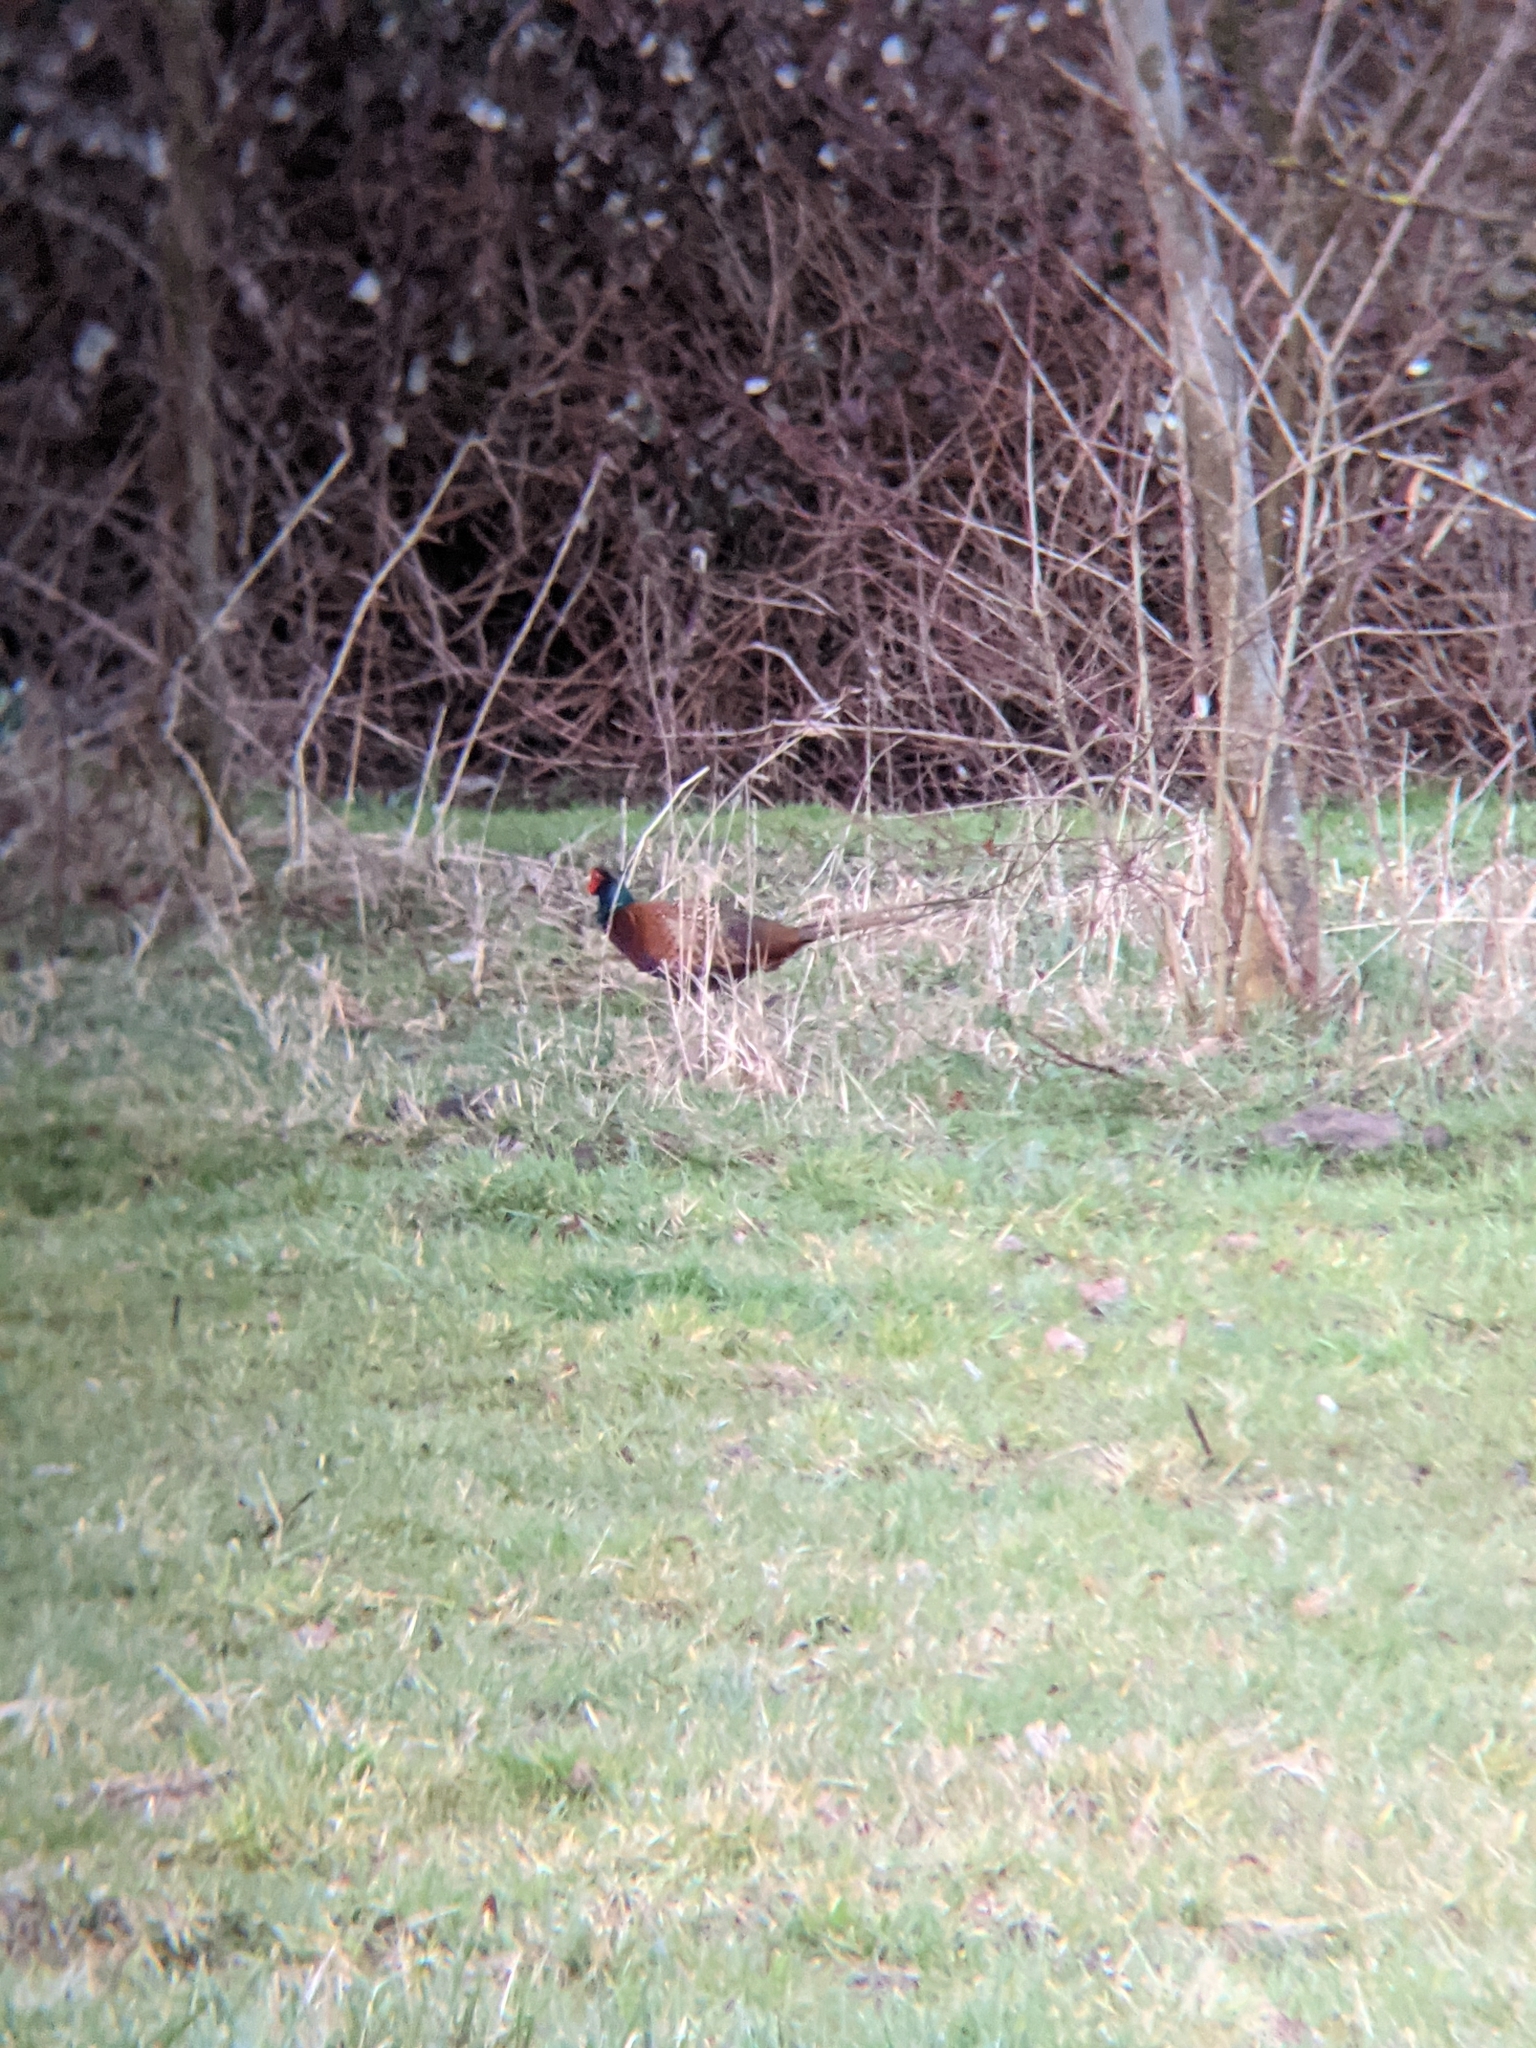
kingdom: Animalia
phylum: Chordata
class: Aves
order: Galliformes
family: Phasianidae
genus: Phasianus
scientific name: Phasianus colchicus
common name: Common pheasant
